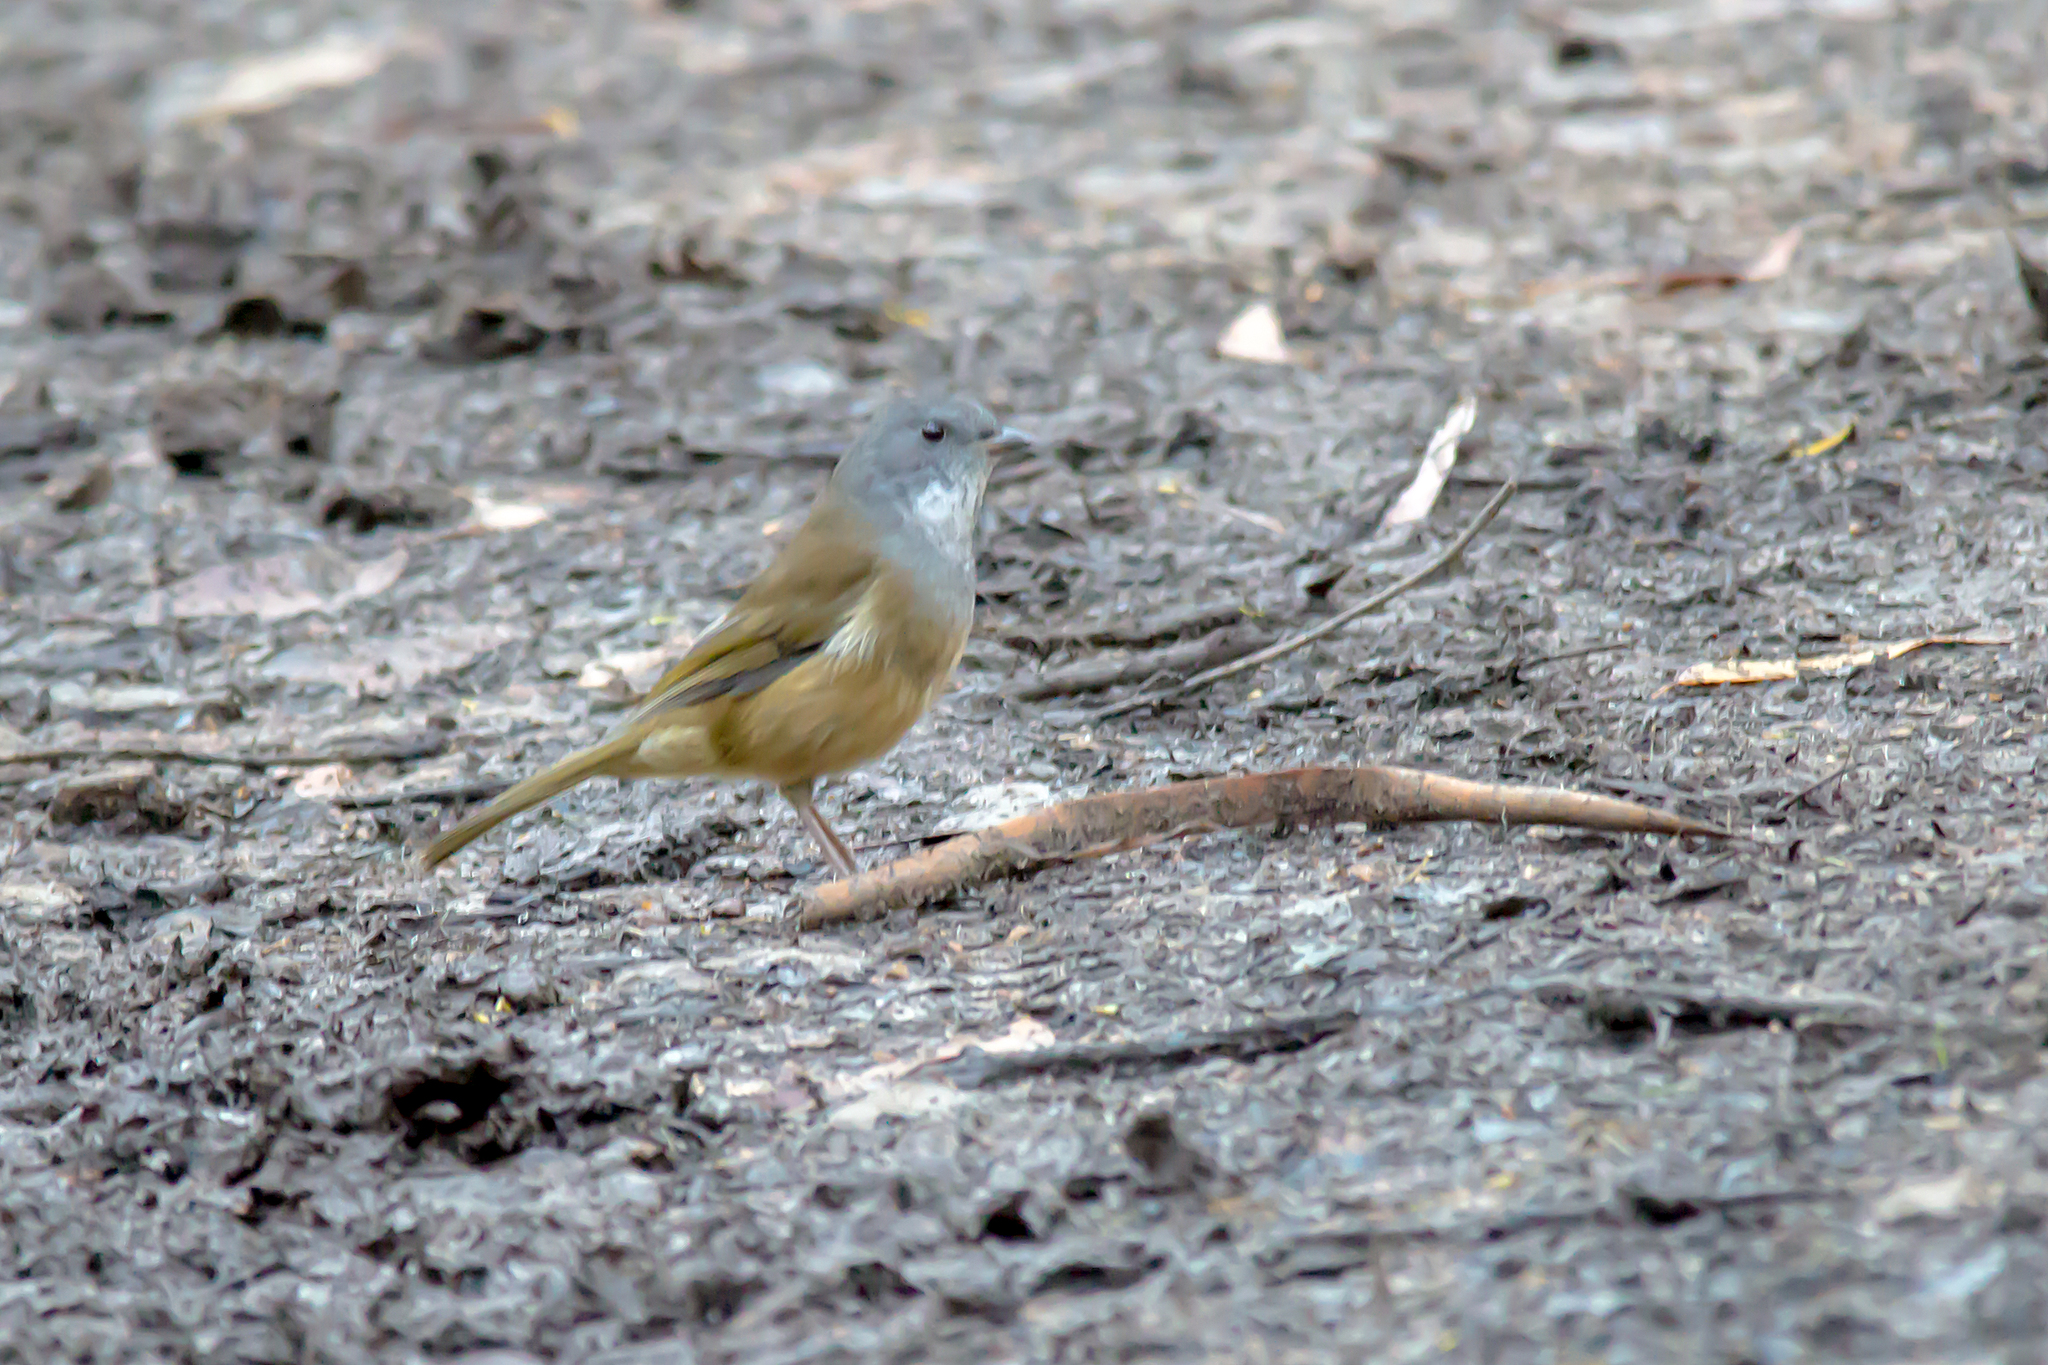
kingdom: Animalia
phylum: Chordata
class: Aves
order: Passeriformes
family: Pachycephalidae
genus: Pachycephala
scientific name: Pachycephala olivacea
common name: Olive whistler
